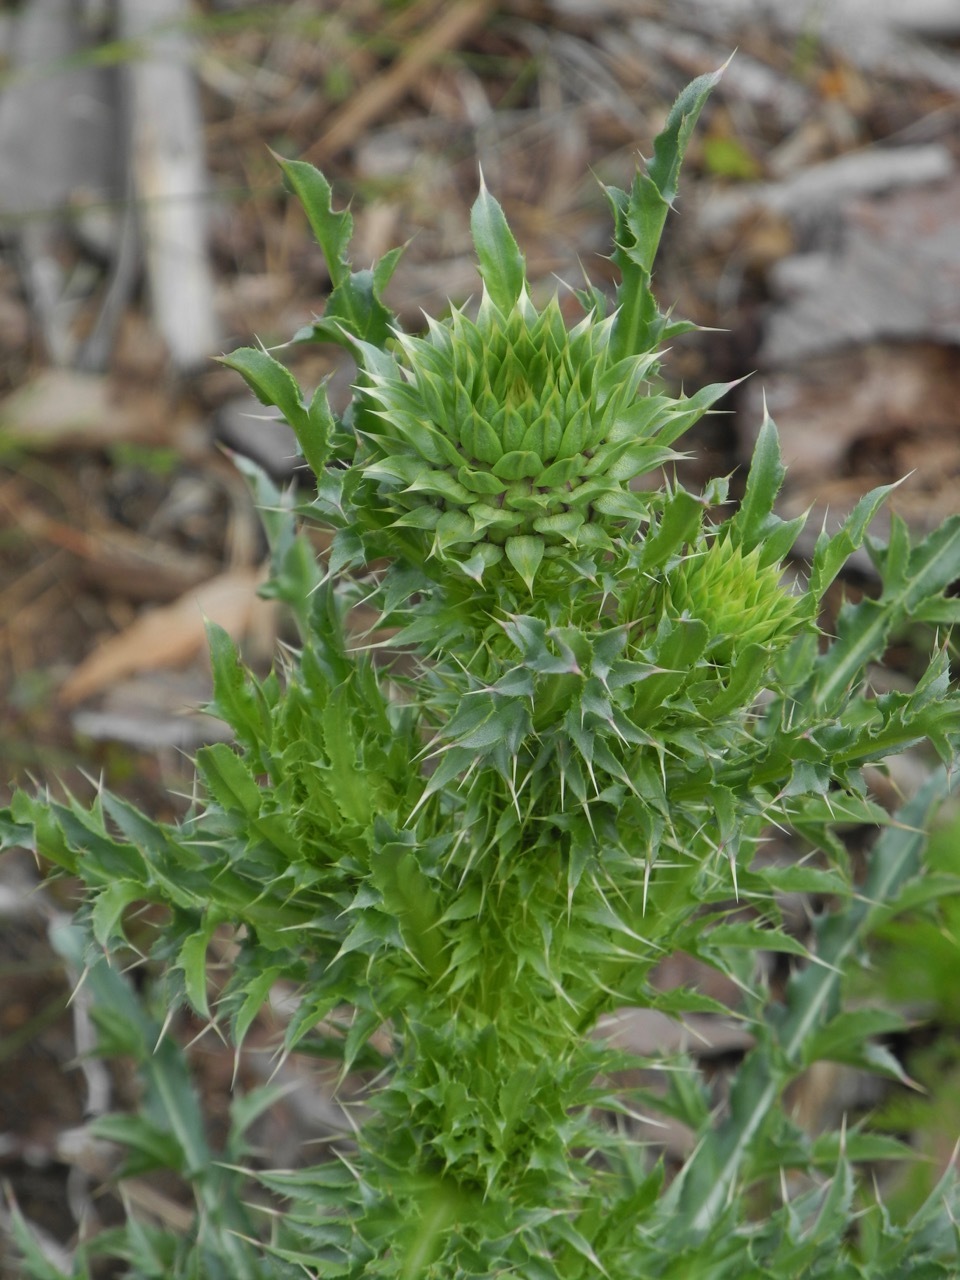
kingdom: Plantae
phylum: Tracheophyta
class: Magnoliopsida
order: Asterales
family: Asteraceae
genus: Carduus
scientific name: Carduus nutans
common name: Musk thistle
